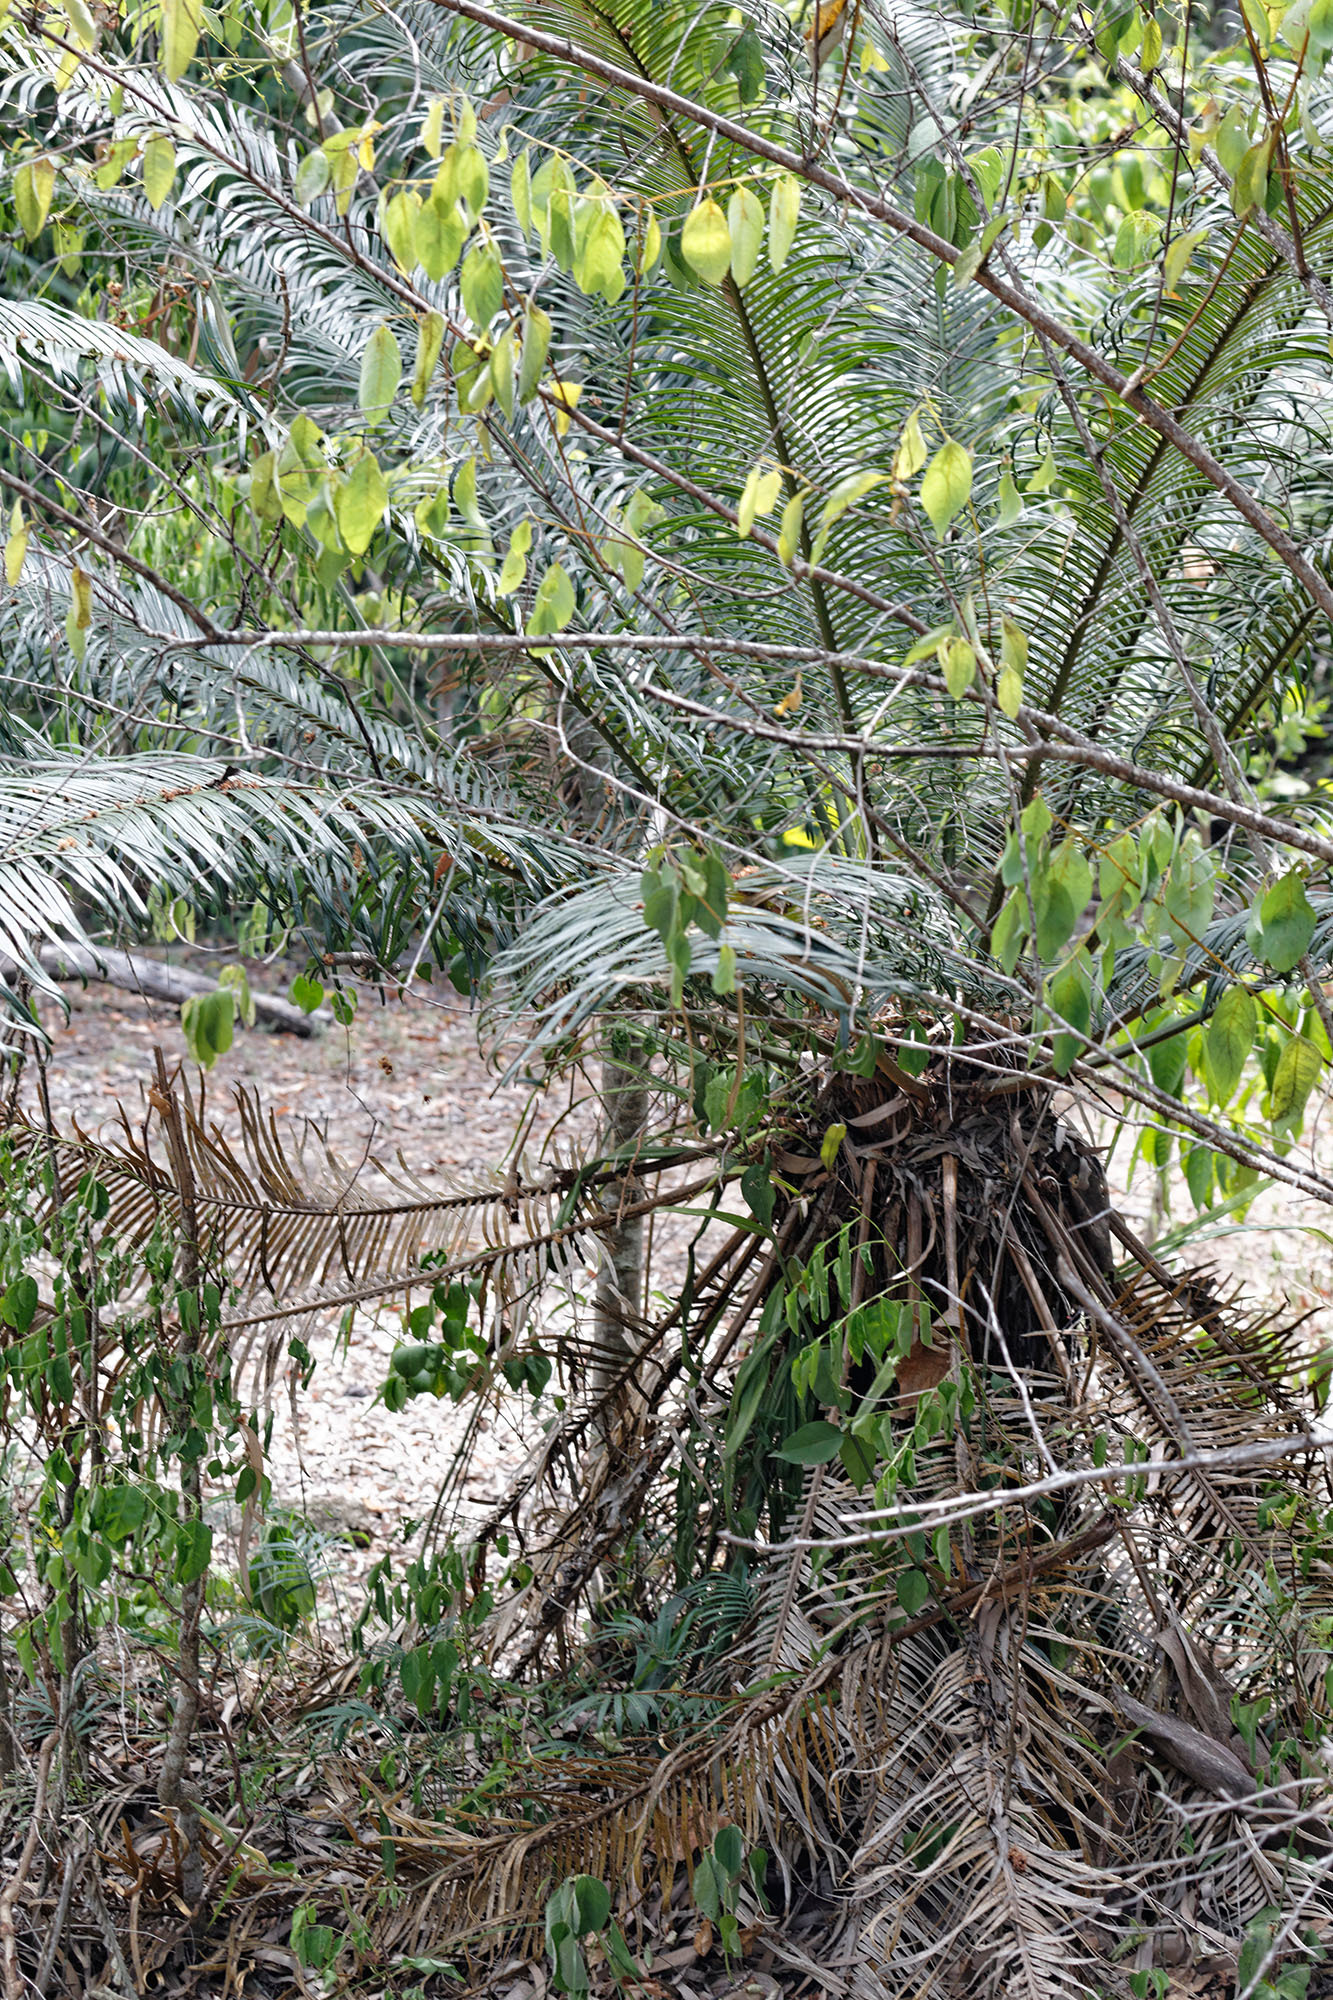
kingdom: Plantae
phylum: Tracheophyta
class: Cycadopsida
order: Cycadales
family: Cycadaceae
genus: Cycas
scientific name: Cycas media
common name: Queensland cycas
